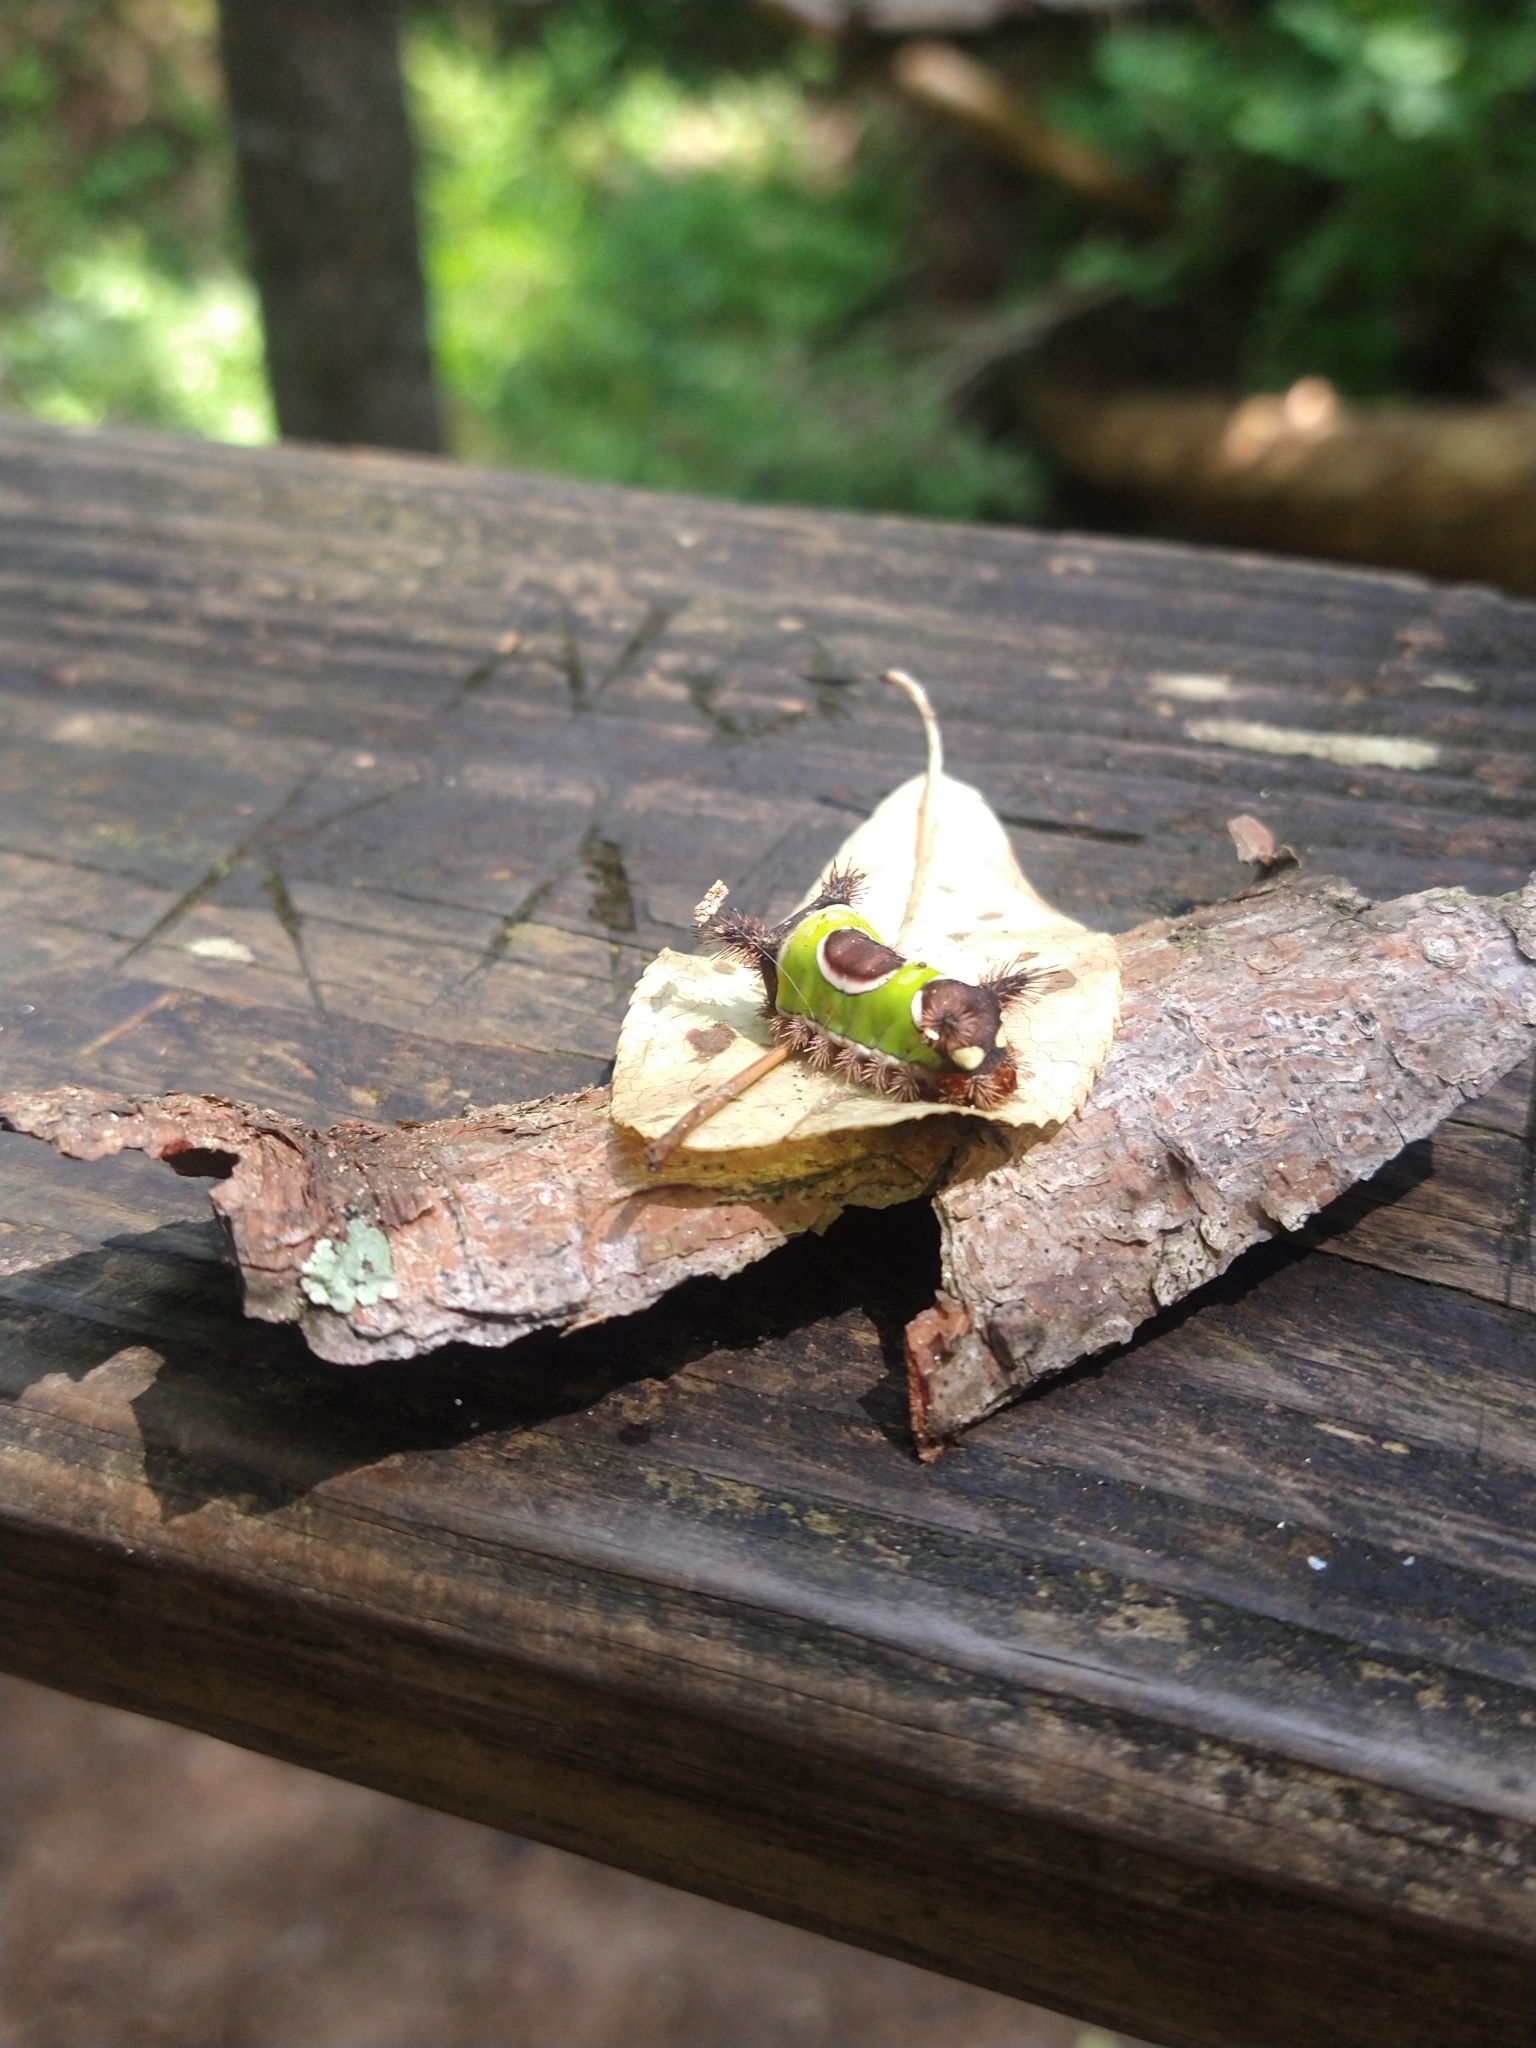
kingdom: Animalia
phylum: Arthropoda
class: Insecta
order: Lepidoptera
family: Limacodidae
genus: Acharia
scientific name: Acharia stimulea
